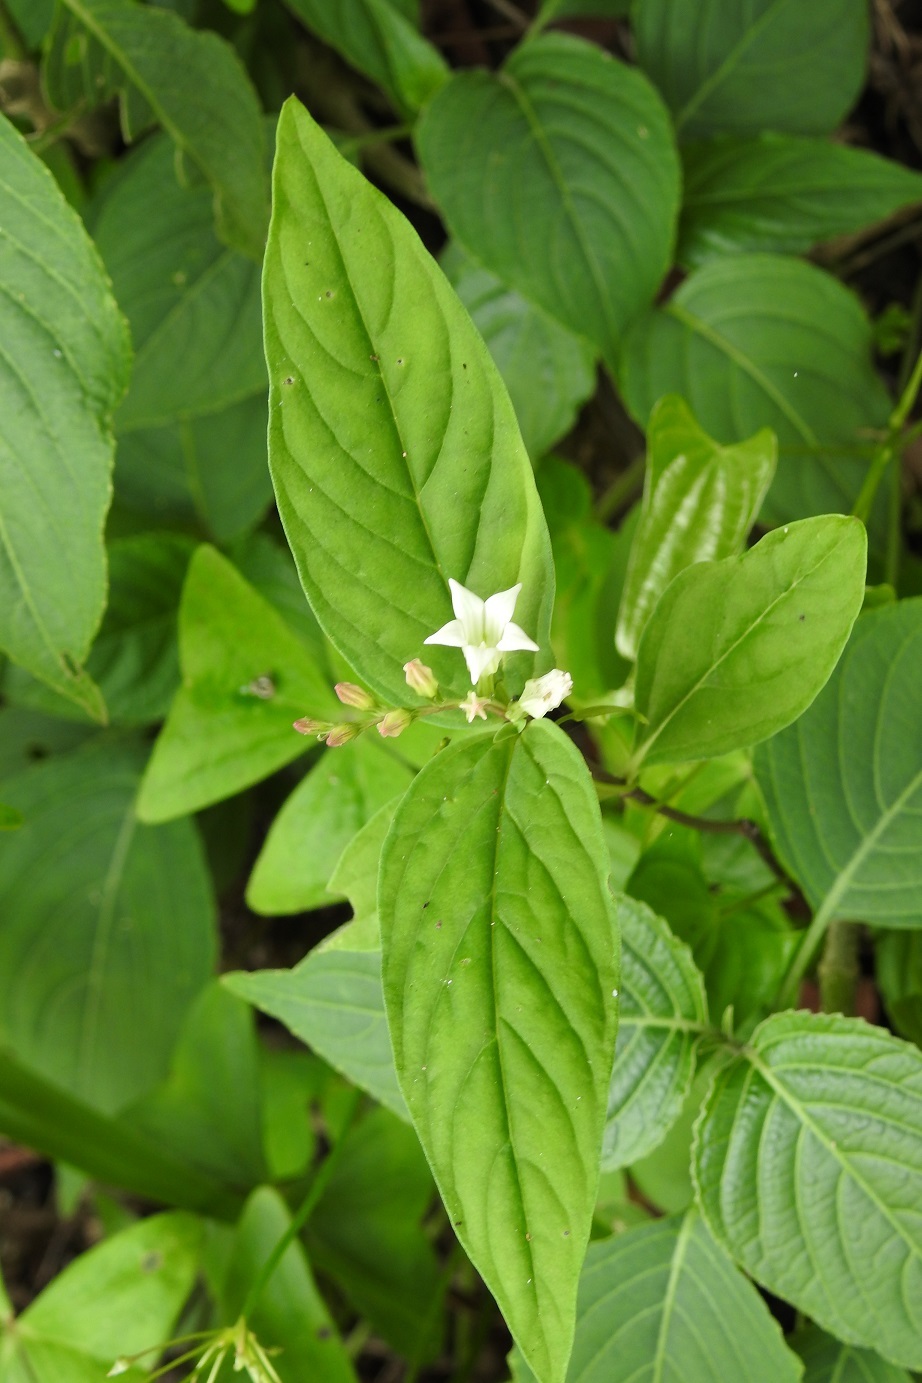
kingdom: Plantae
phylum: Tracheophyta
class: Magnoliopsida
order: Gentianales
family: Loganiaceae
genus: Spigelia
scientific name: Spigelia humboldtiana
